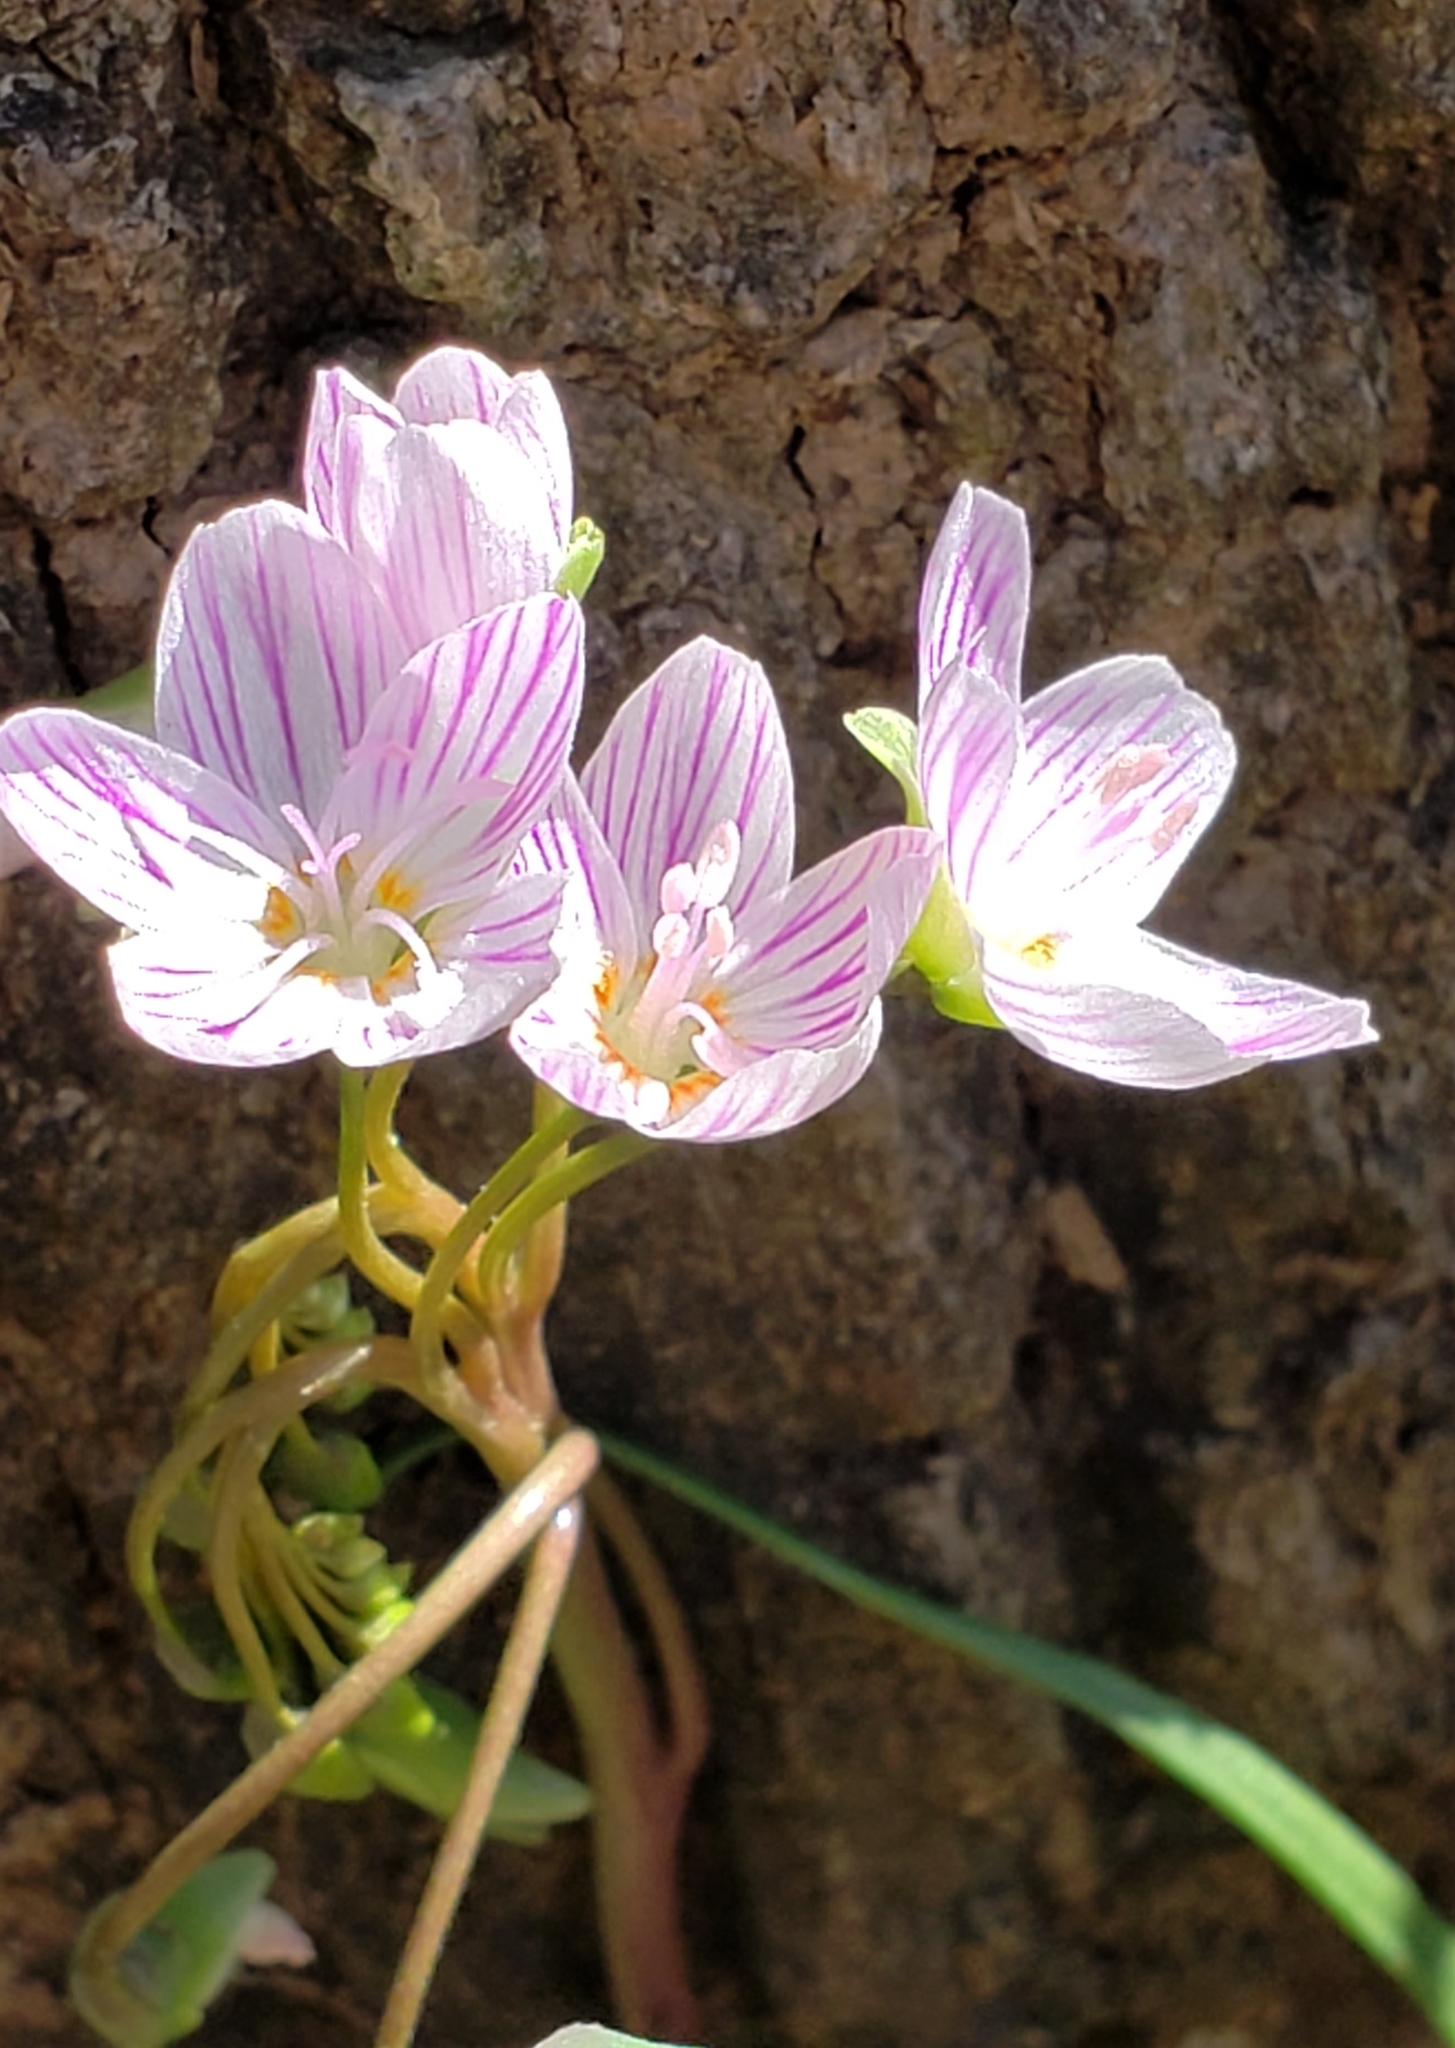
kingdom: Plantae
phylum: Tracheophyta
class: Magnoliopsida
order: Caryophyllales
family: Montiaceae
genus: Claytonia
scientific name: Claytonia virginica
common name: Virginia springbeauty
